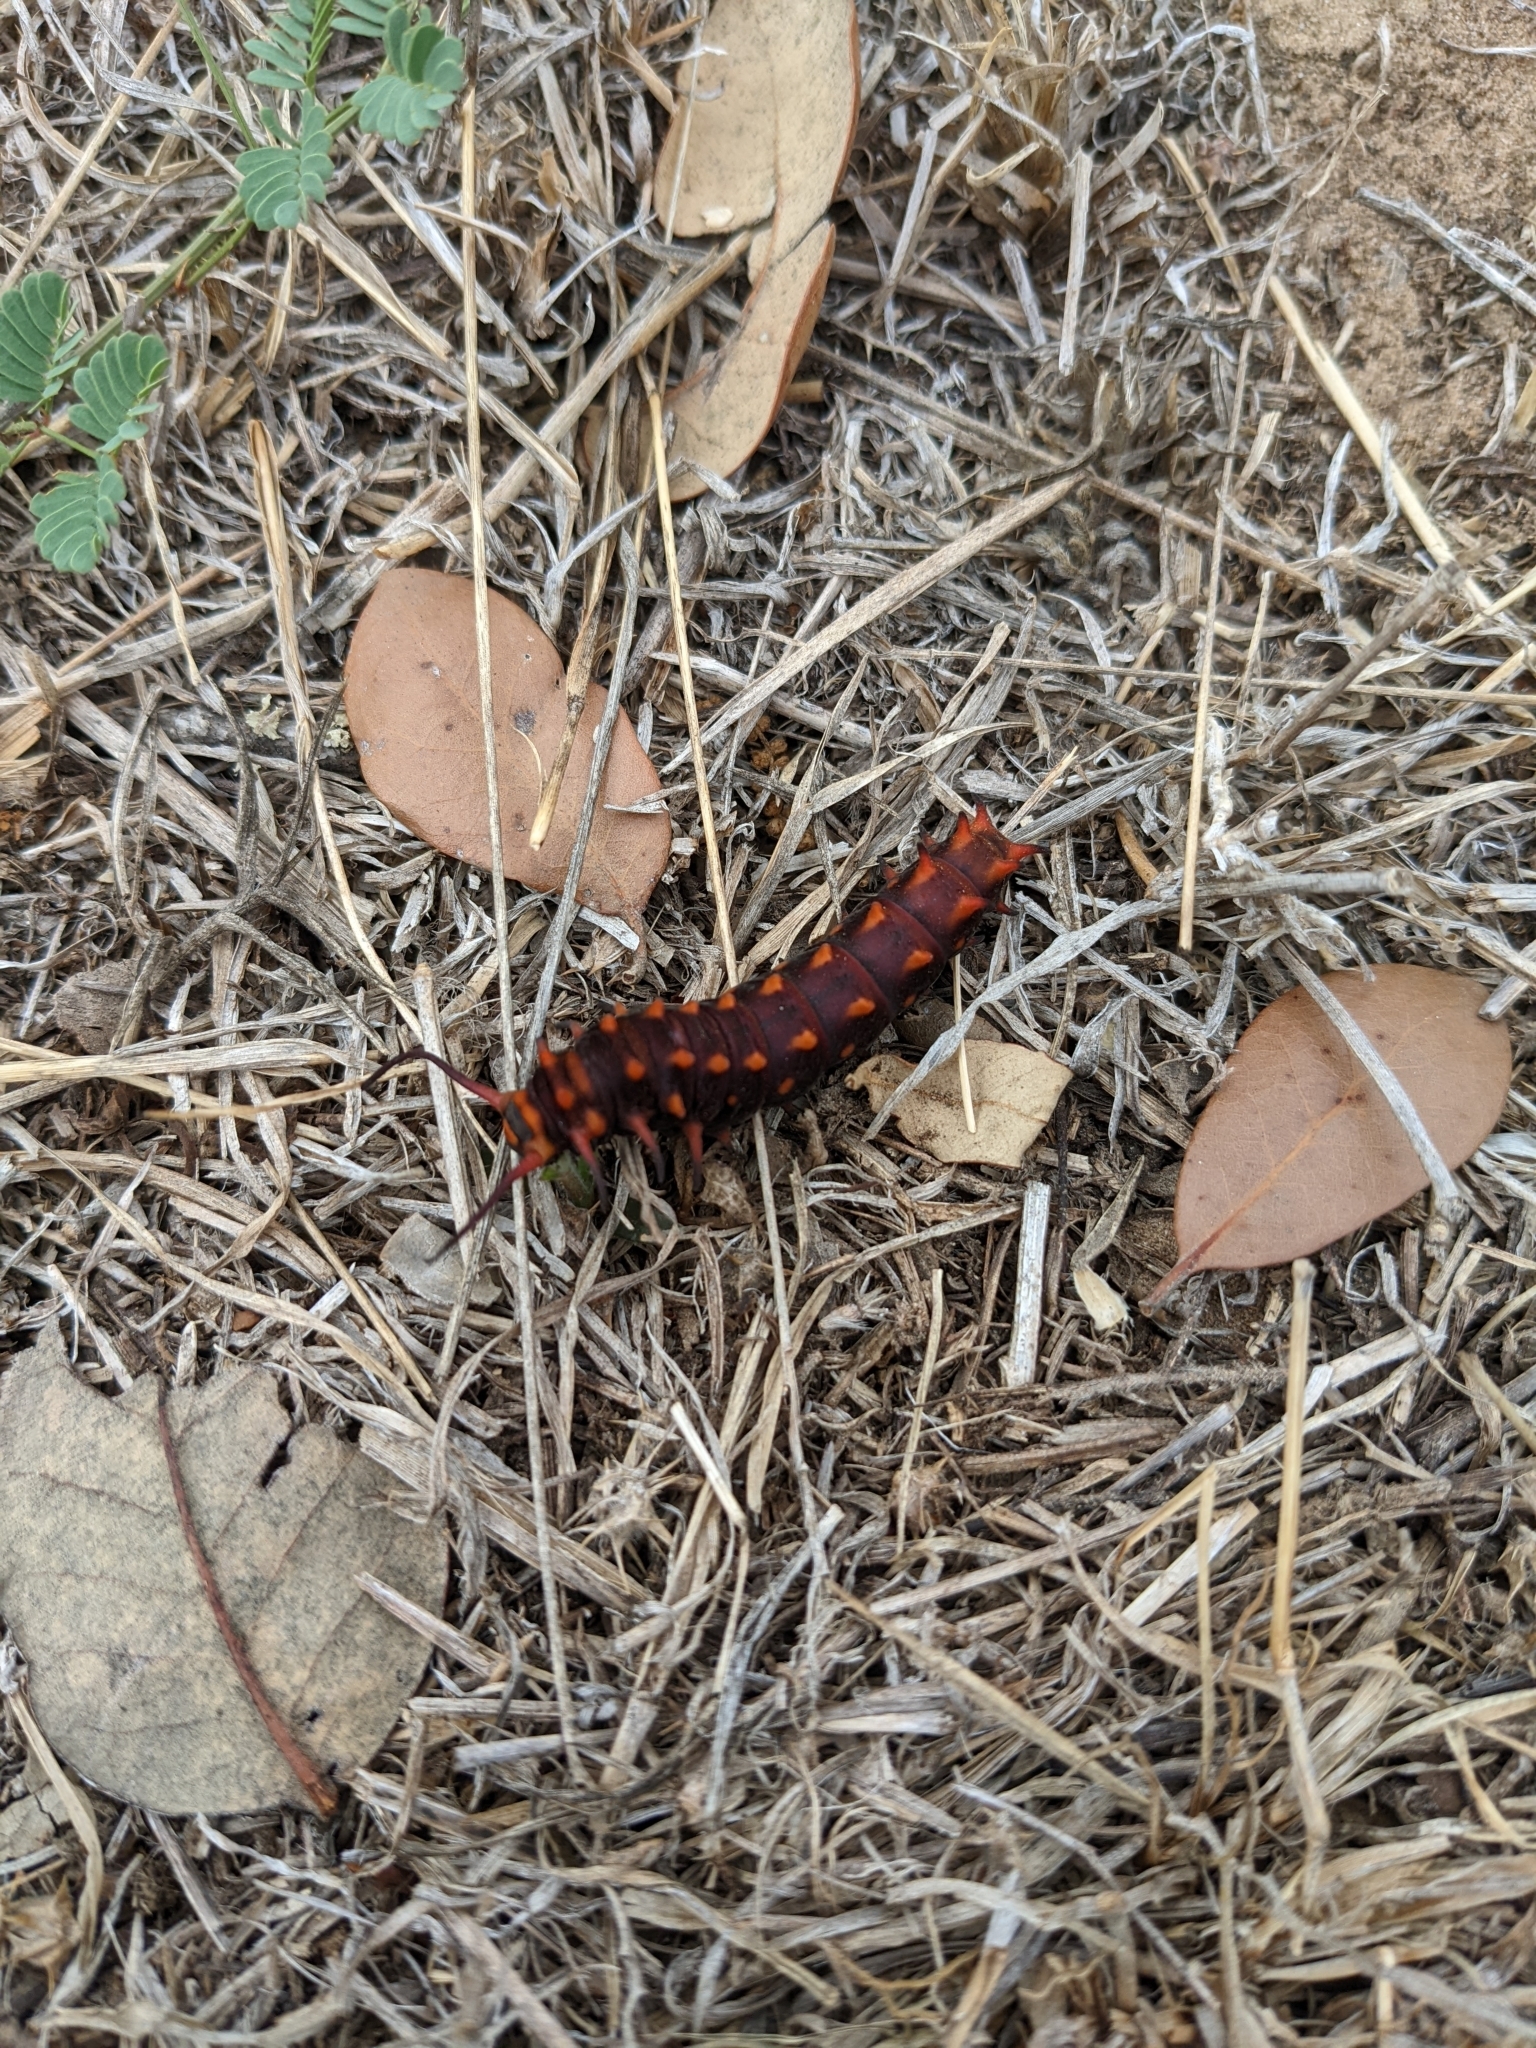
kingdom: Animalia
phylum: Arthropoda
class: Insecta
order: Lepidoptera
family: Papilionidae
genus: Battus
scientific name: Battus philenor
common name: Pipevine swallowtail
